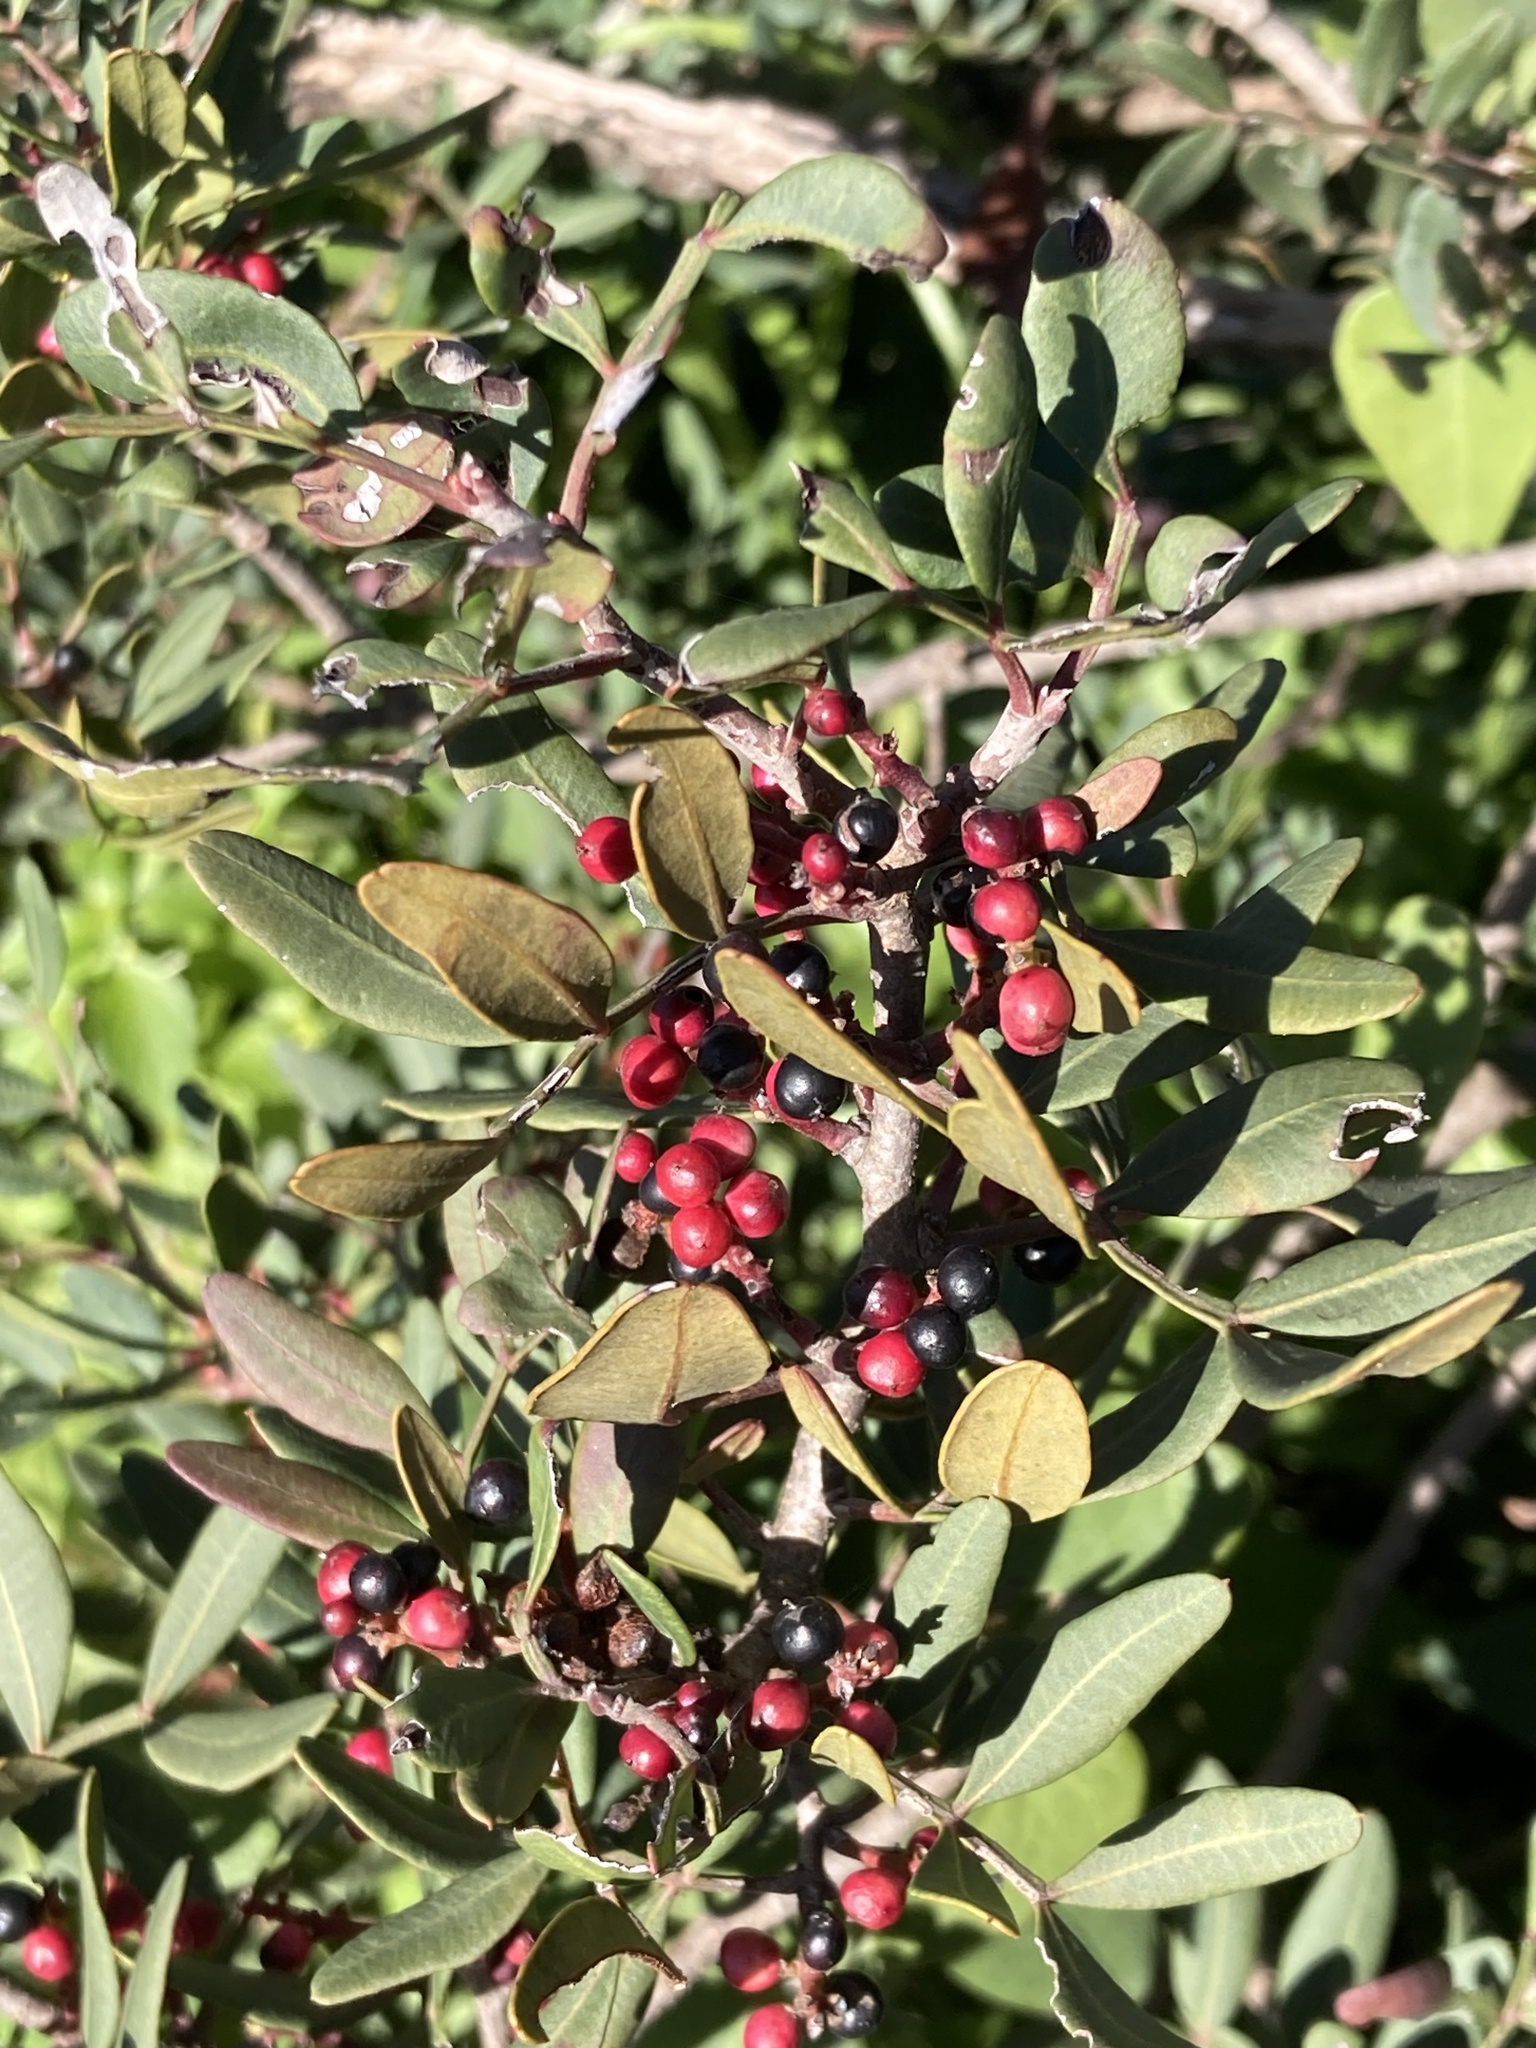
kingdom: Plantae
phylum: Tracheophyta
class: Magnoliopsida
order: Sapindales
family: Anacardiaceae
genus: Pistacia
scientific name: Pistacia lentiscus
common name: Lentisk
